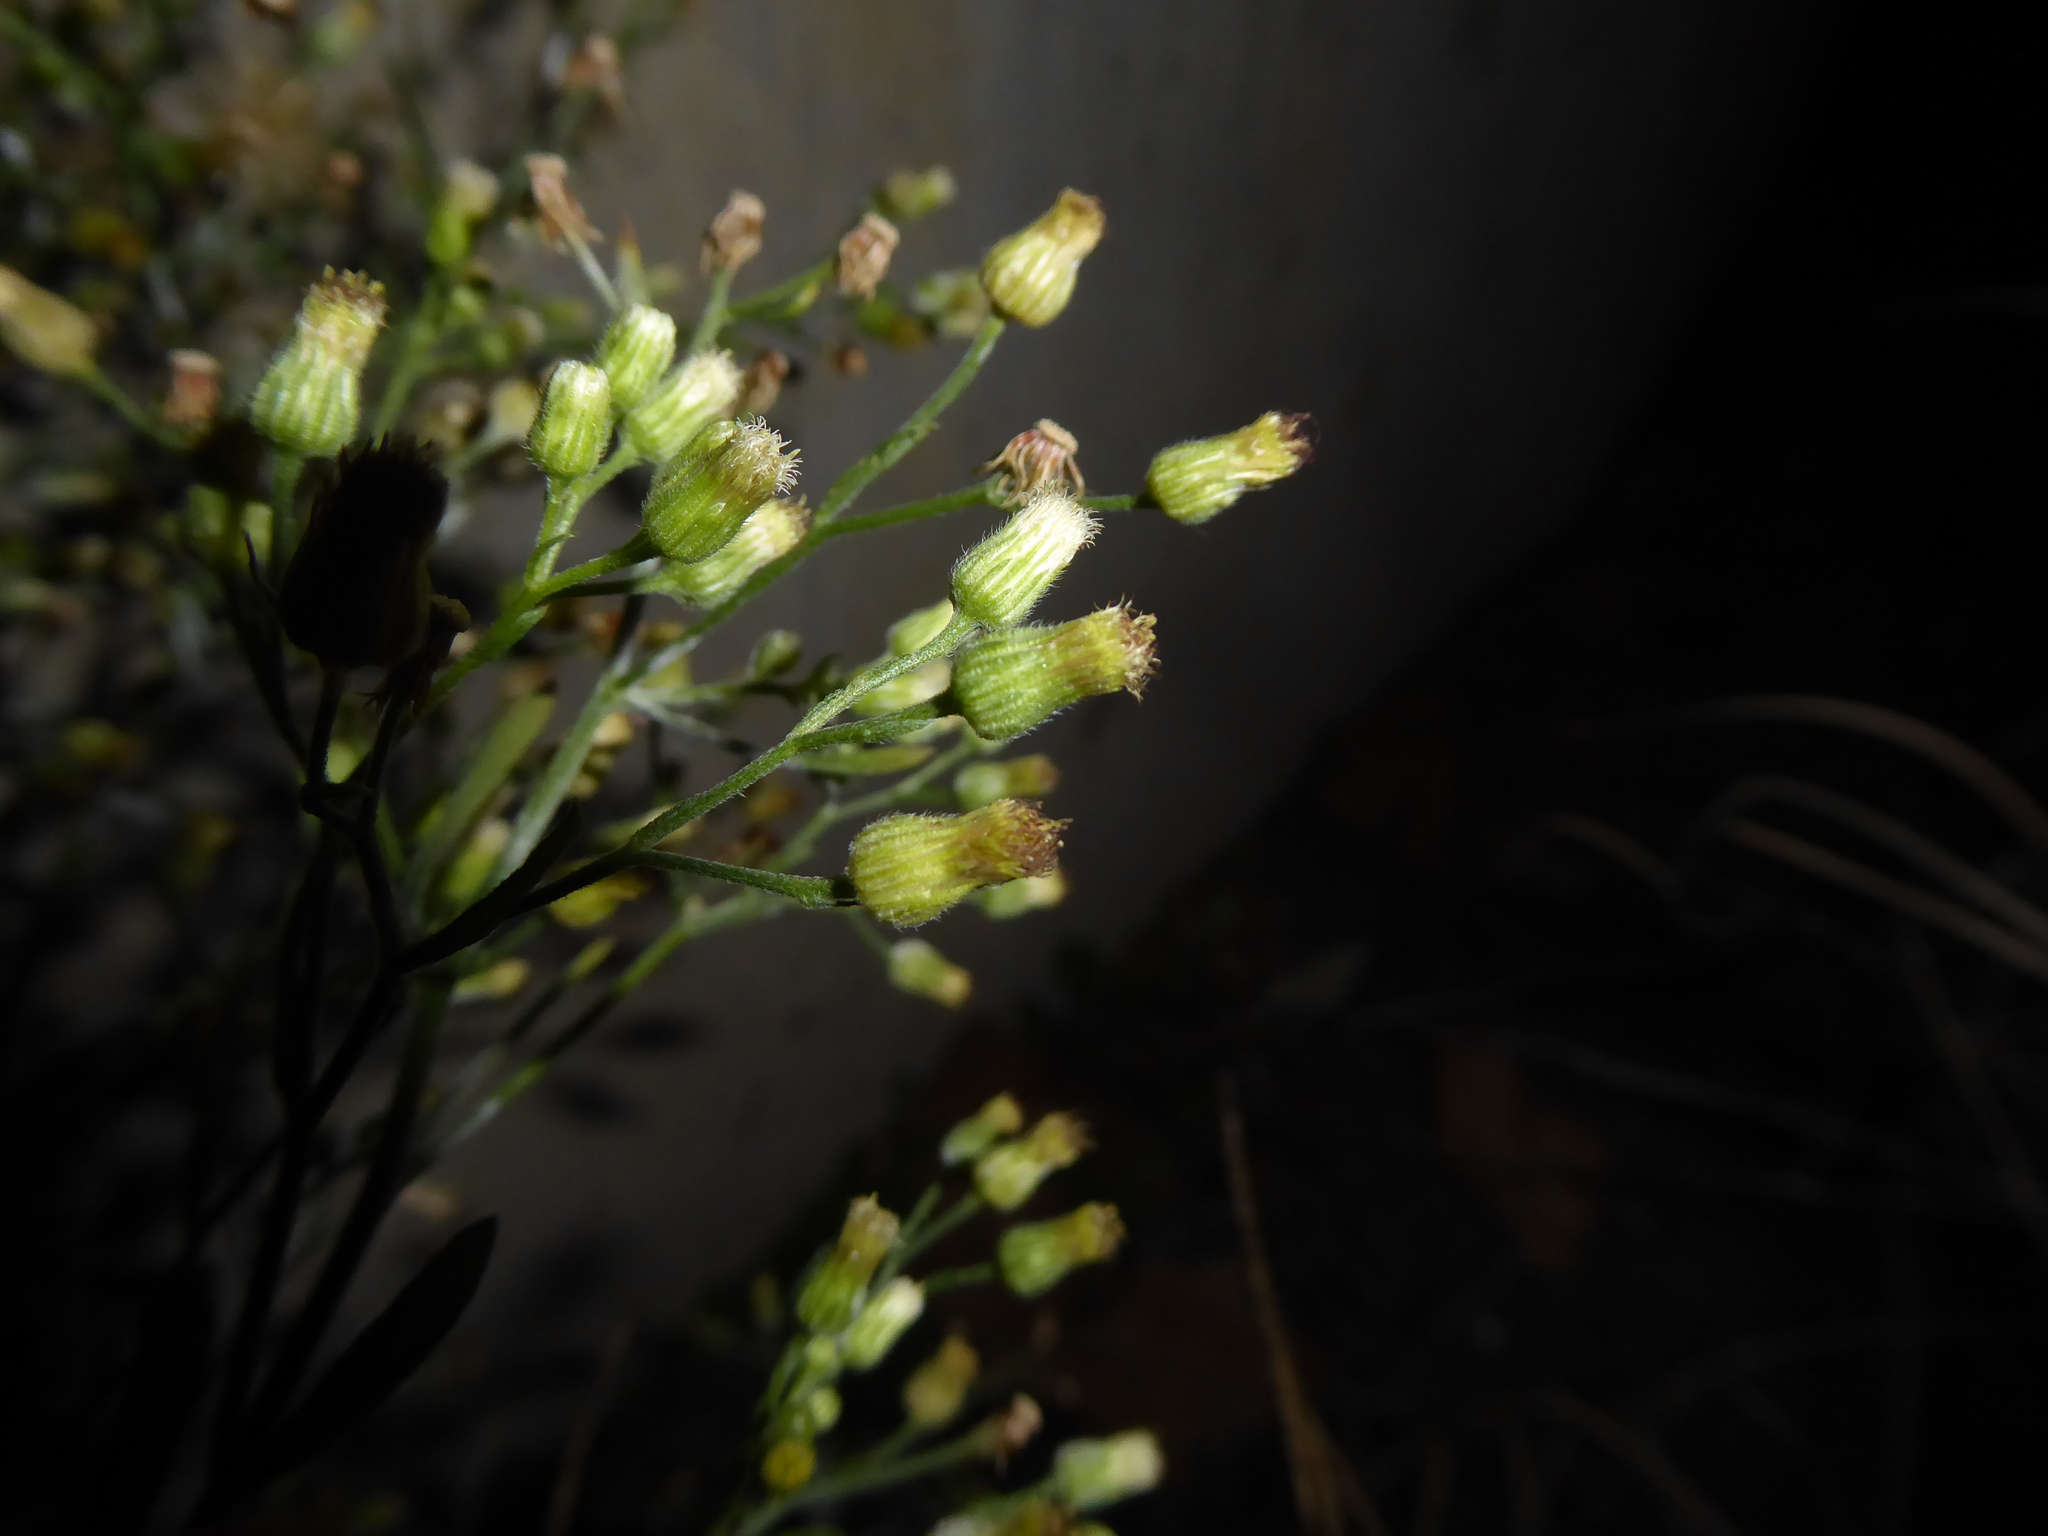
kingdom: Plantae
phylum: Tracheophyta
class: Magnoliopsida
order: Asterales
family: Asteraceae
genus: Erigeron
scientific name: Erigeron sumatrensis
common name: Daisy
